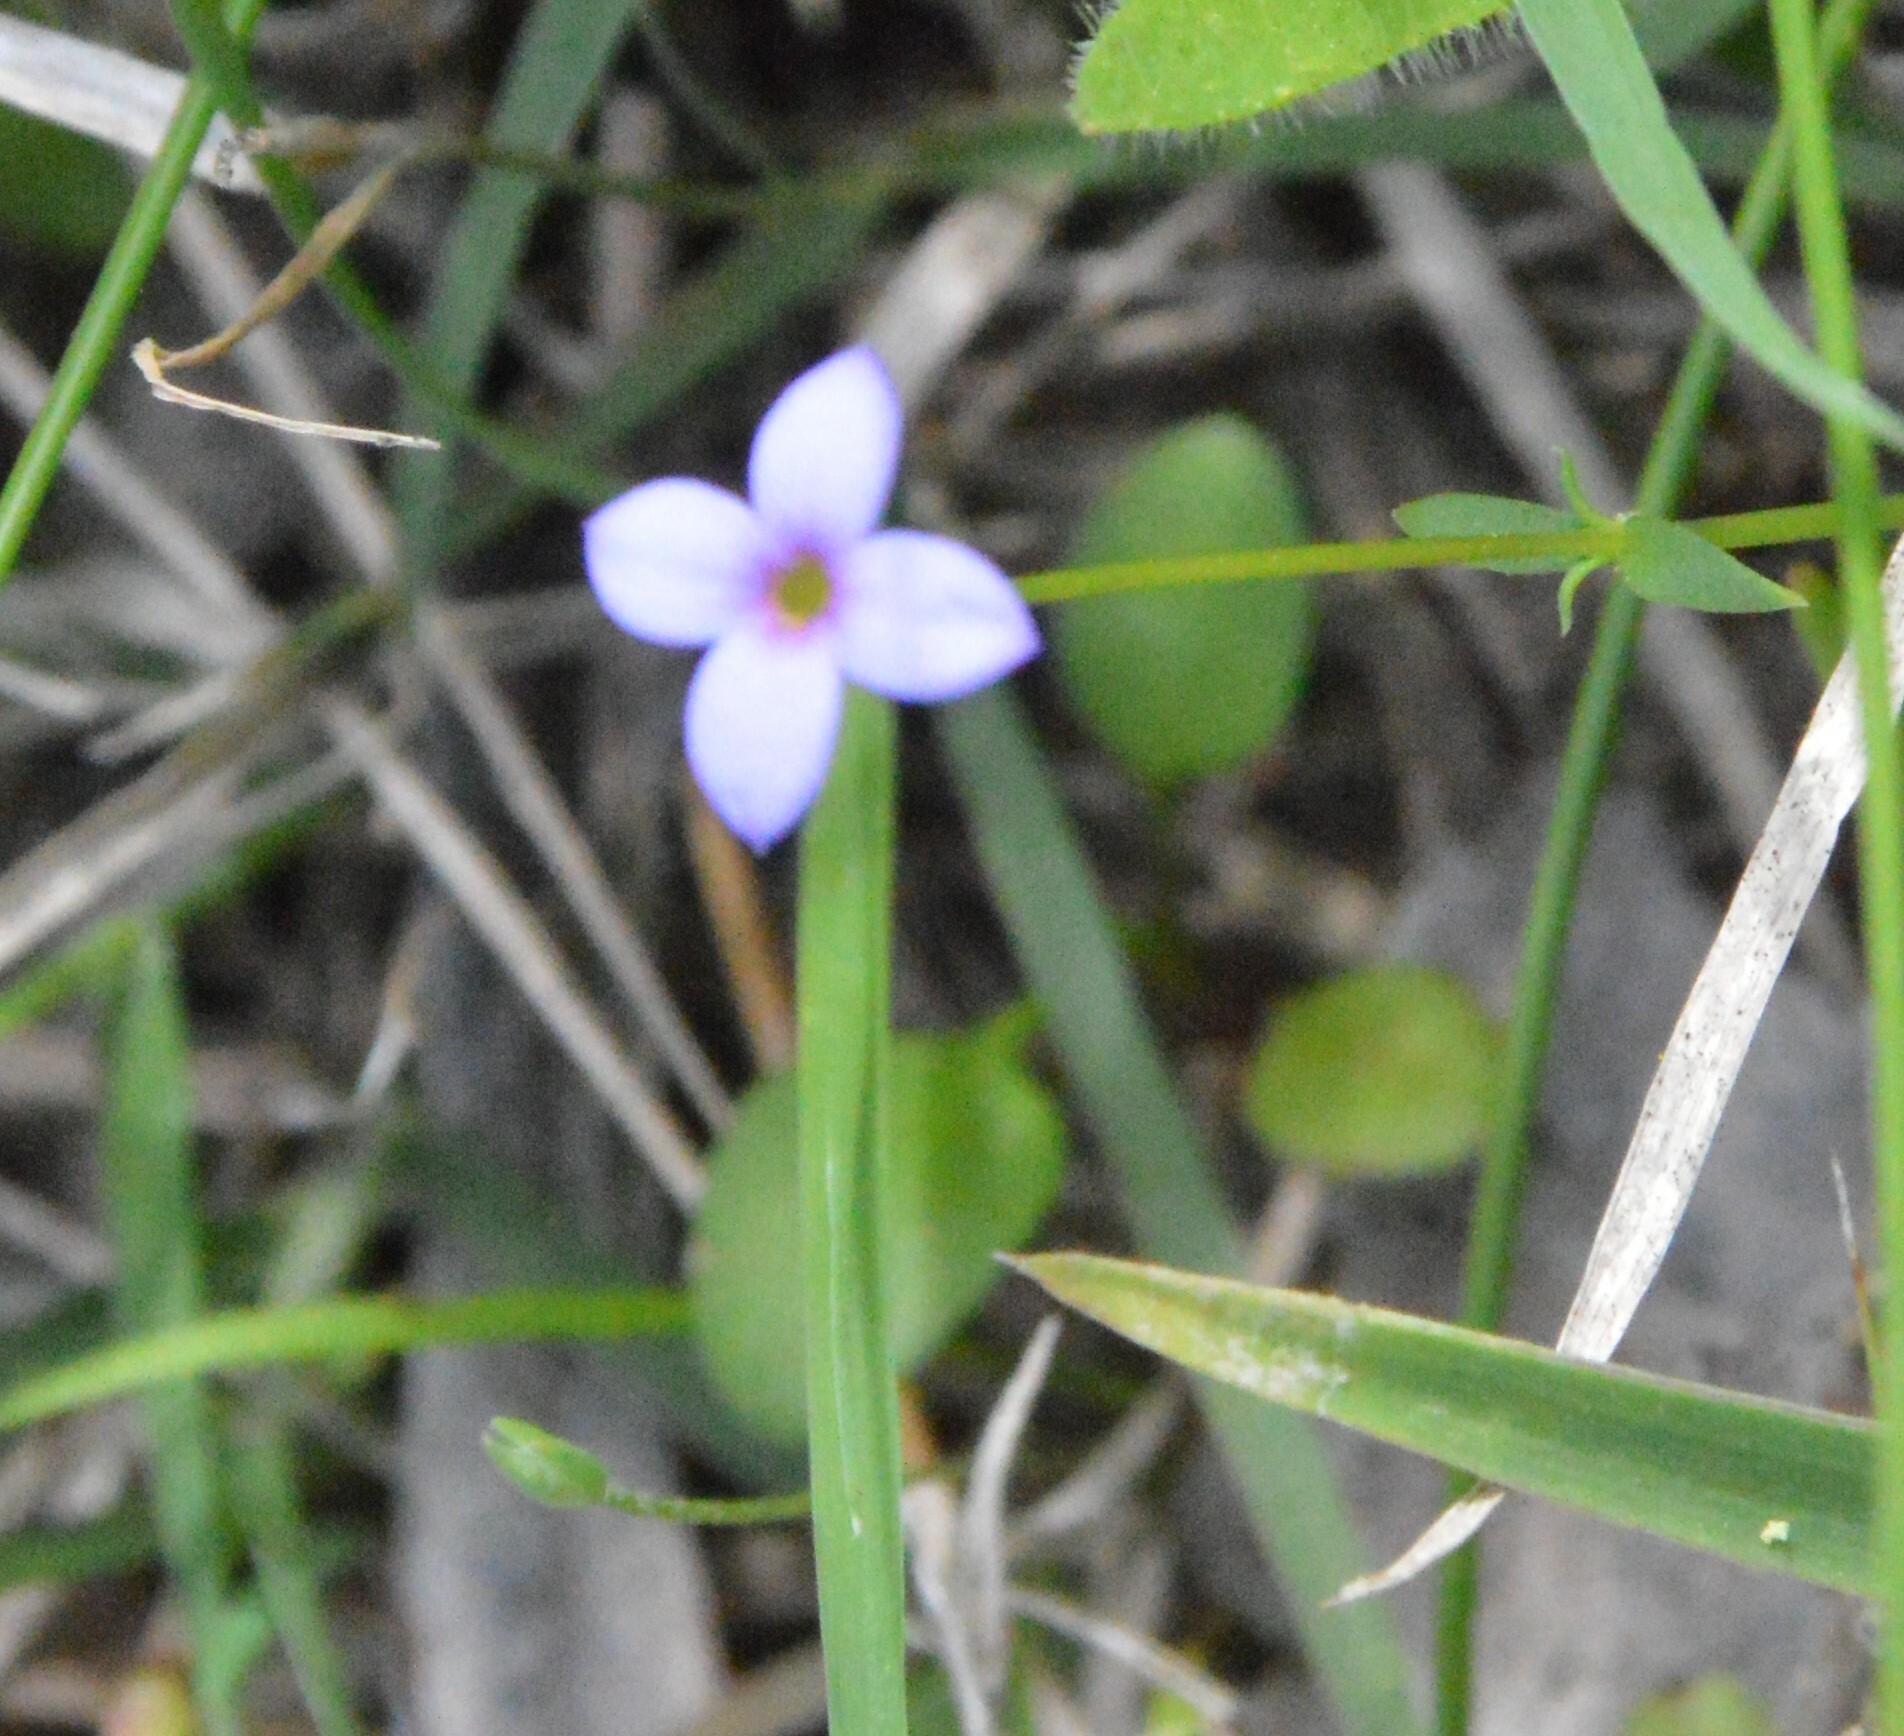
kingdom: Plantae
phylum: Tracheophyta
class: Magnoliopsida
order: Gentianales
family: Rubiaceae
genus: Houstonia
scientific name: Houstonia pusilla
